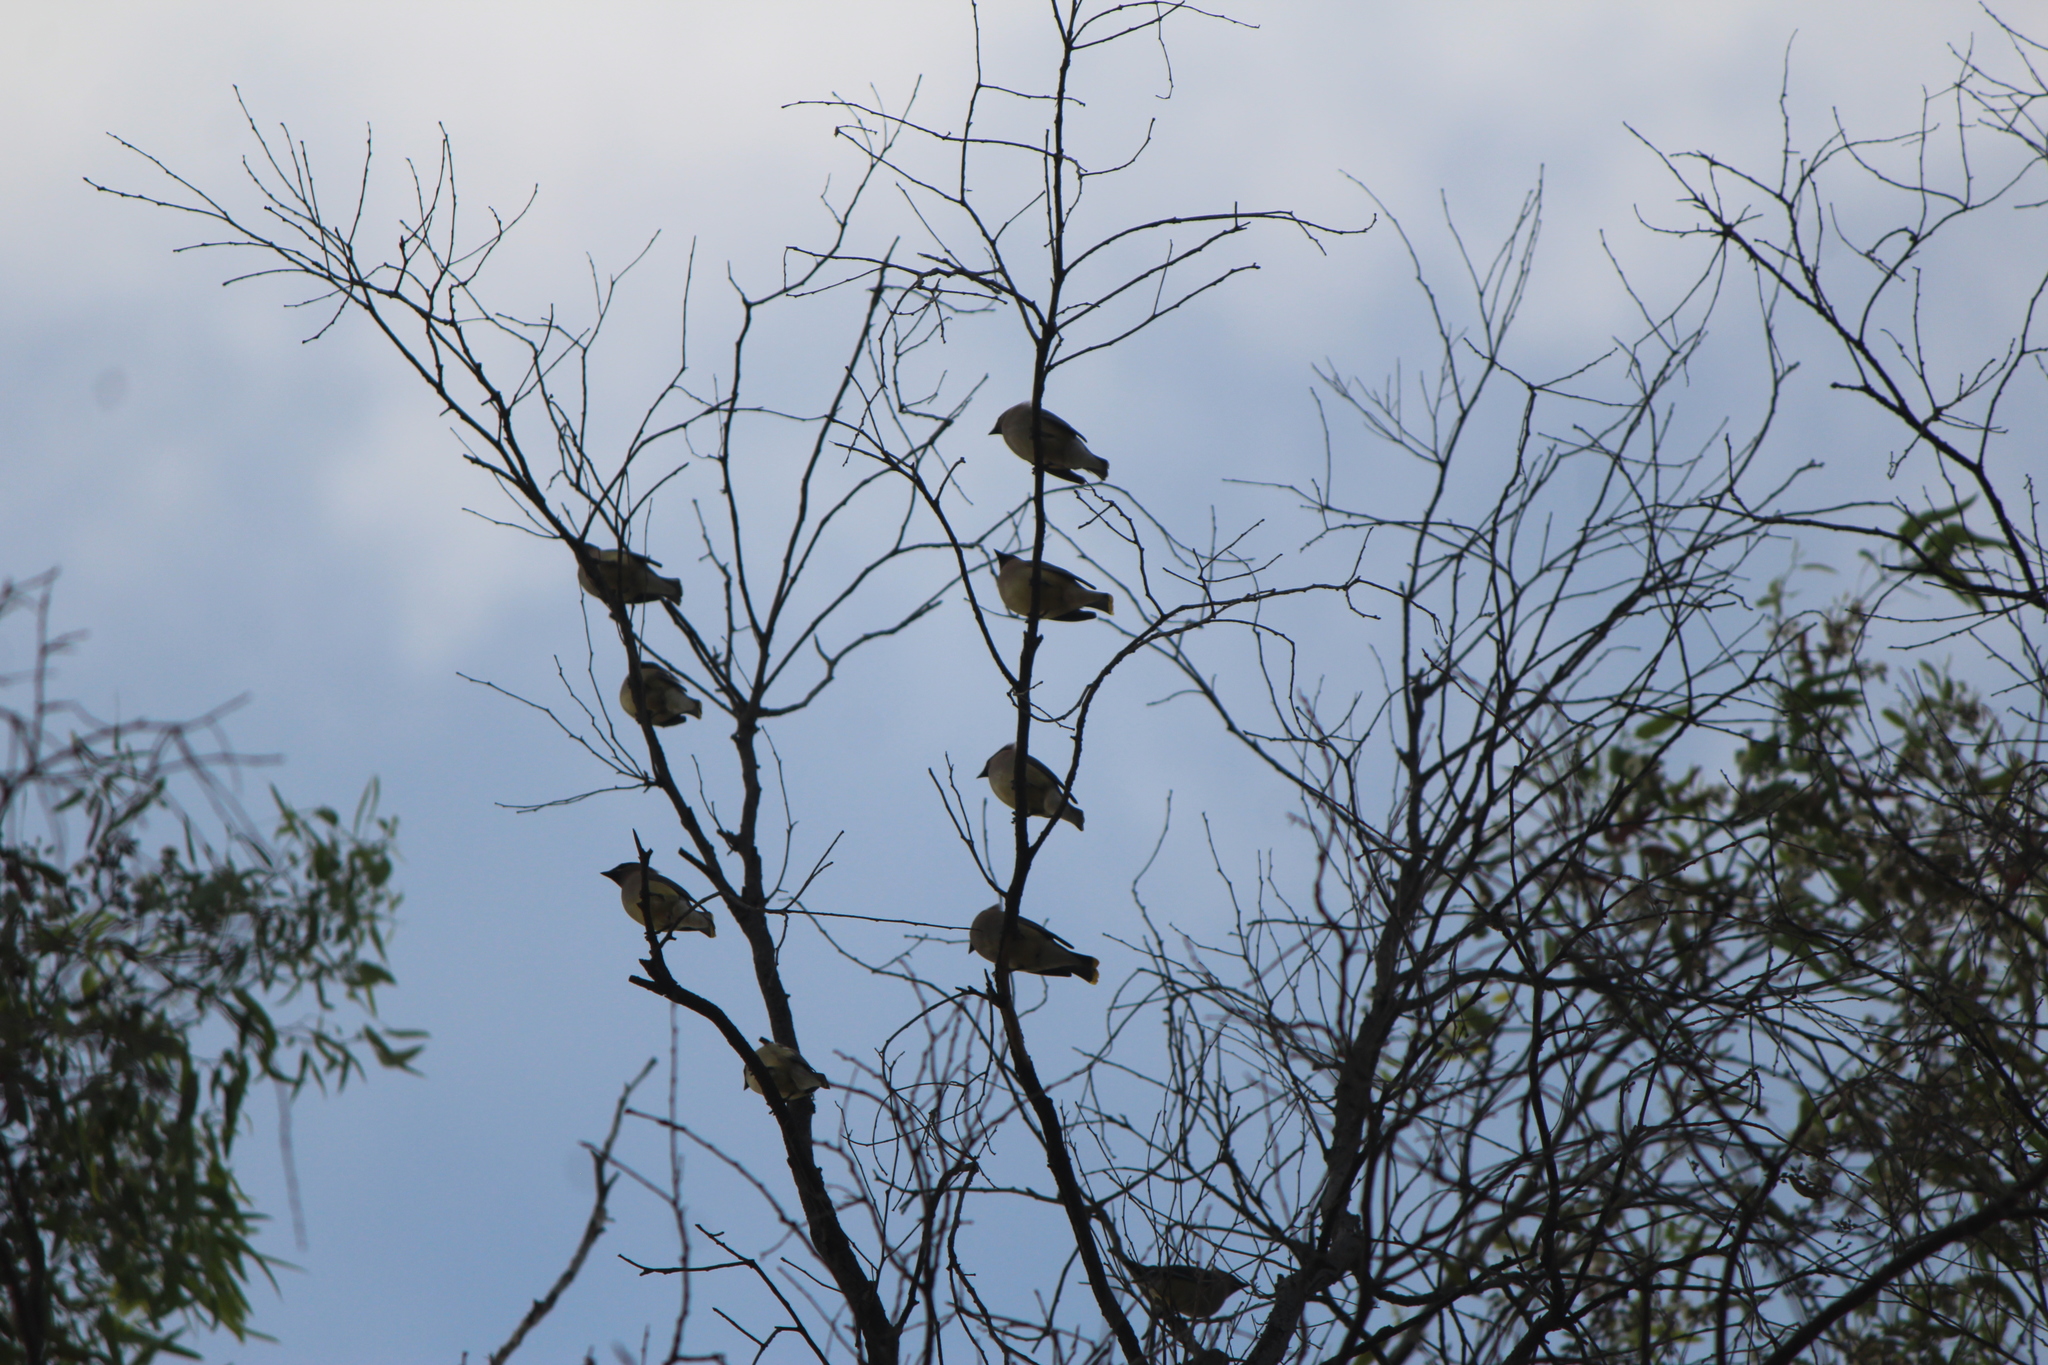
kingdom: Animalia
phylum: Chordata
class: Aves
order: Passeriformes
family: Bombycillidae
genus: Bombycilla
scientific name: Bombycilla cedrorum
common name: Cedar waxwing
